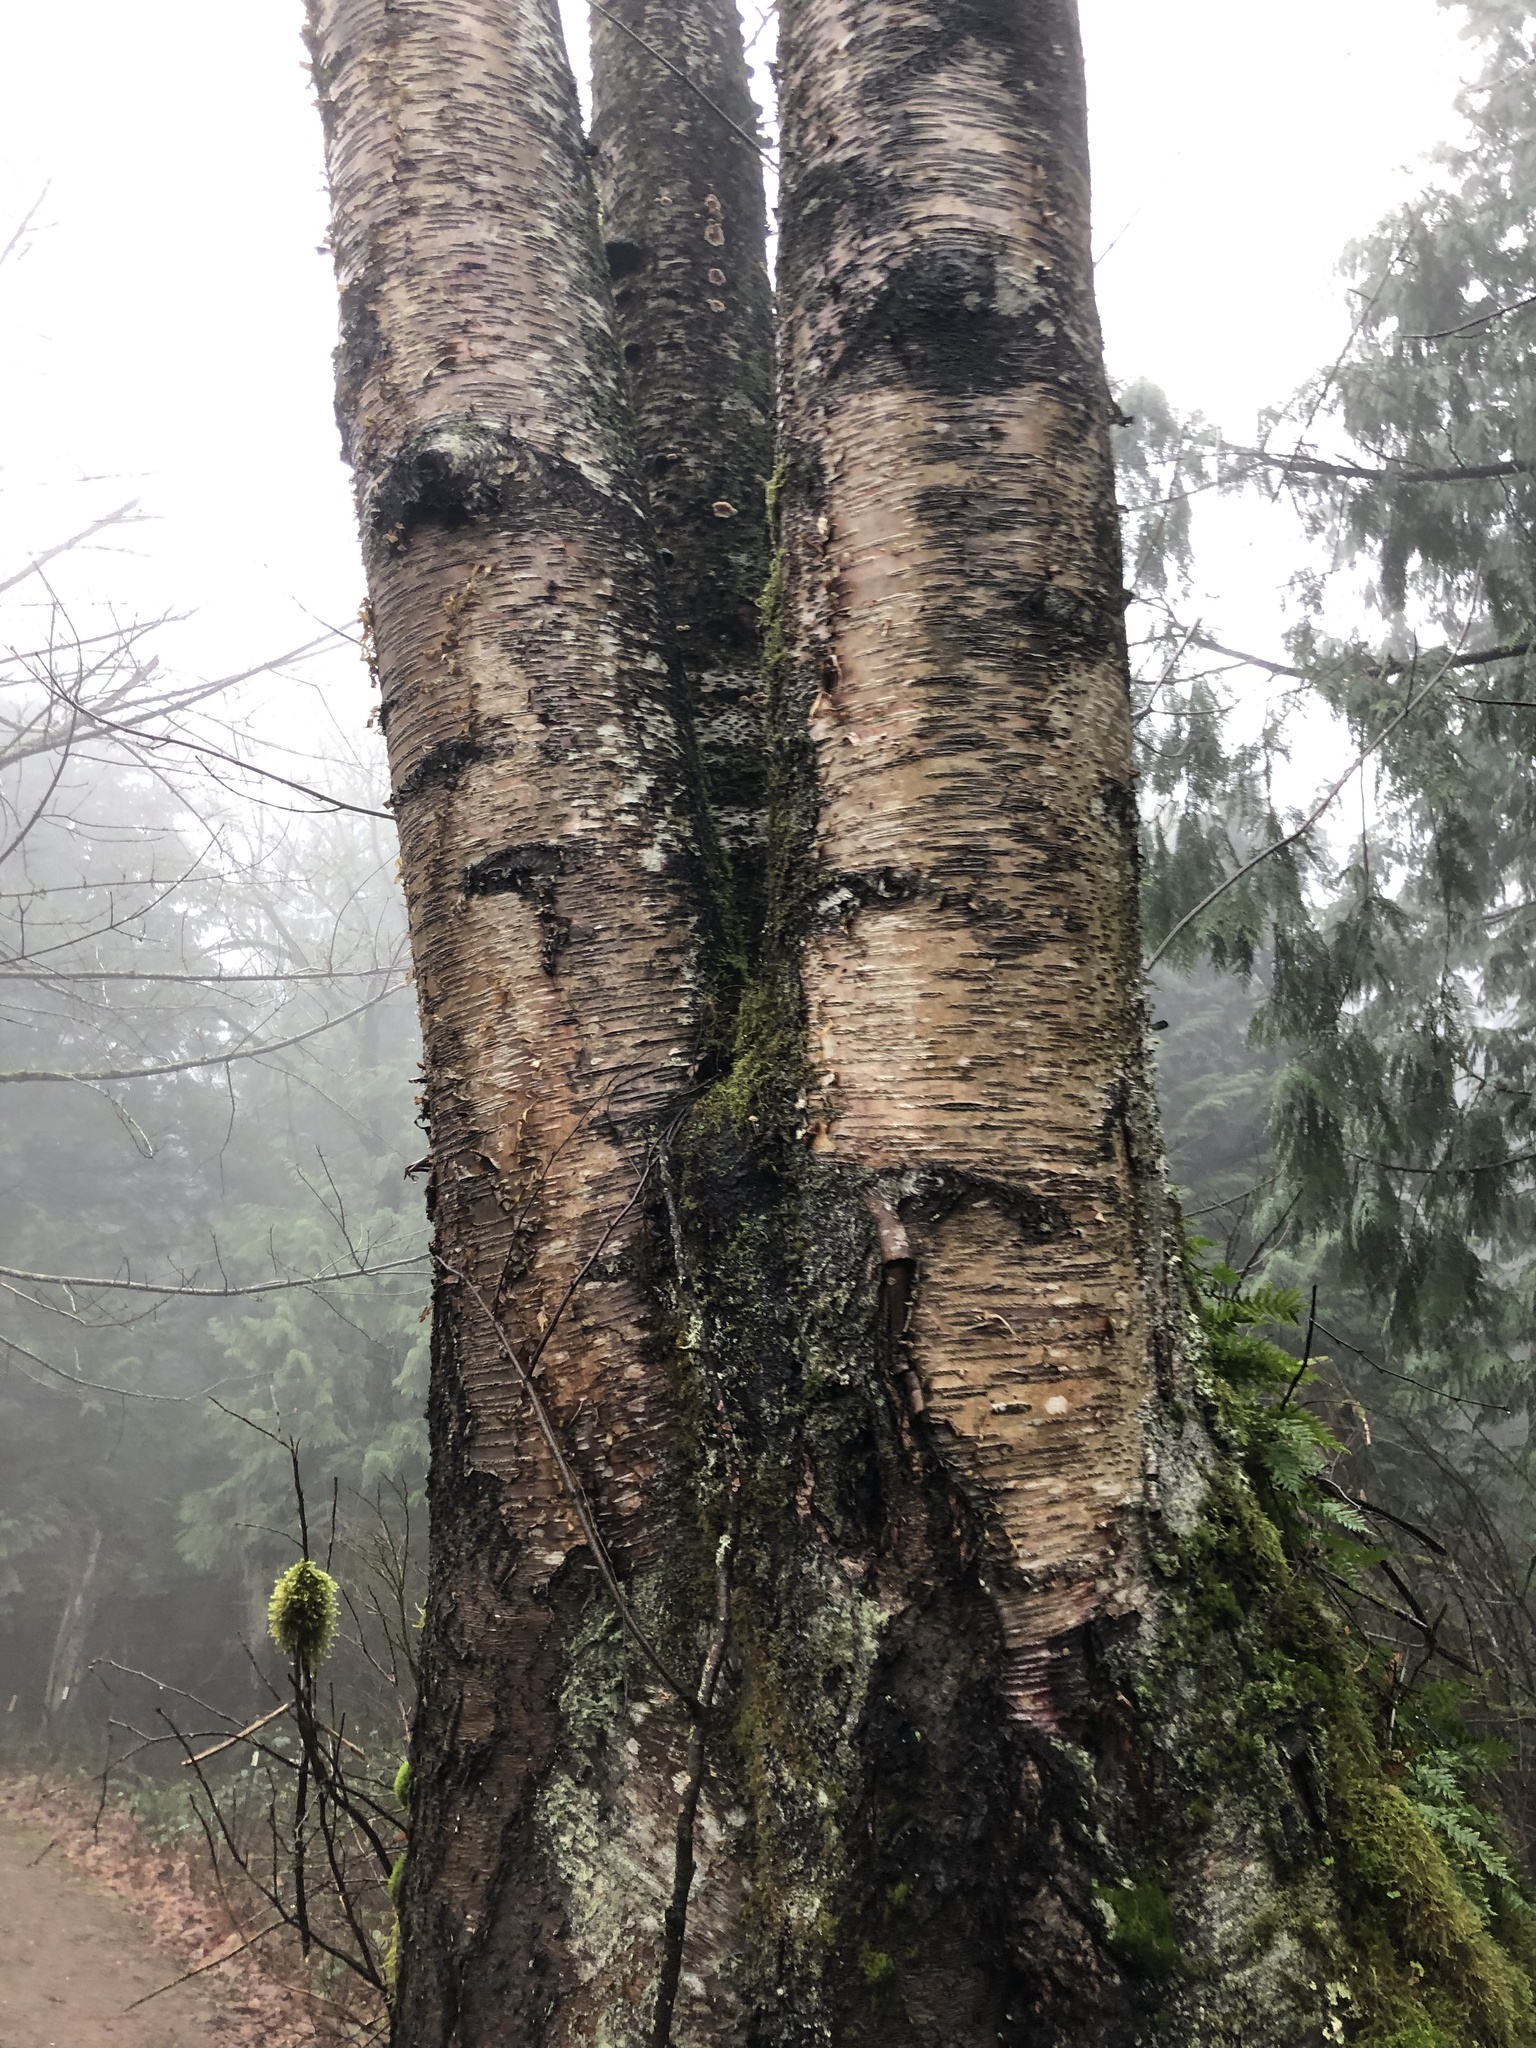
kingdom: Plantae
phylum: Tracheophyta
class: Polypodiopsida
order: Polypodiales
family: Polypodiaceae
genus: Polypodium
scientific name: Polypodium glycyrrhiza
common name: Licorice fern
